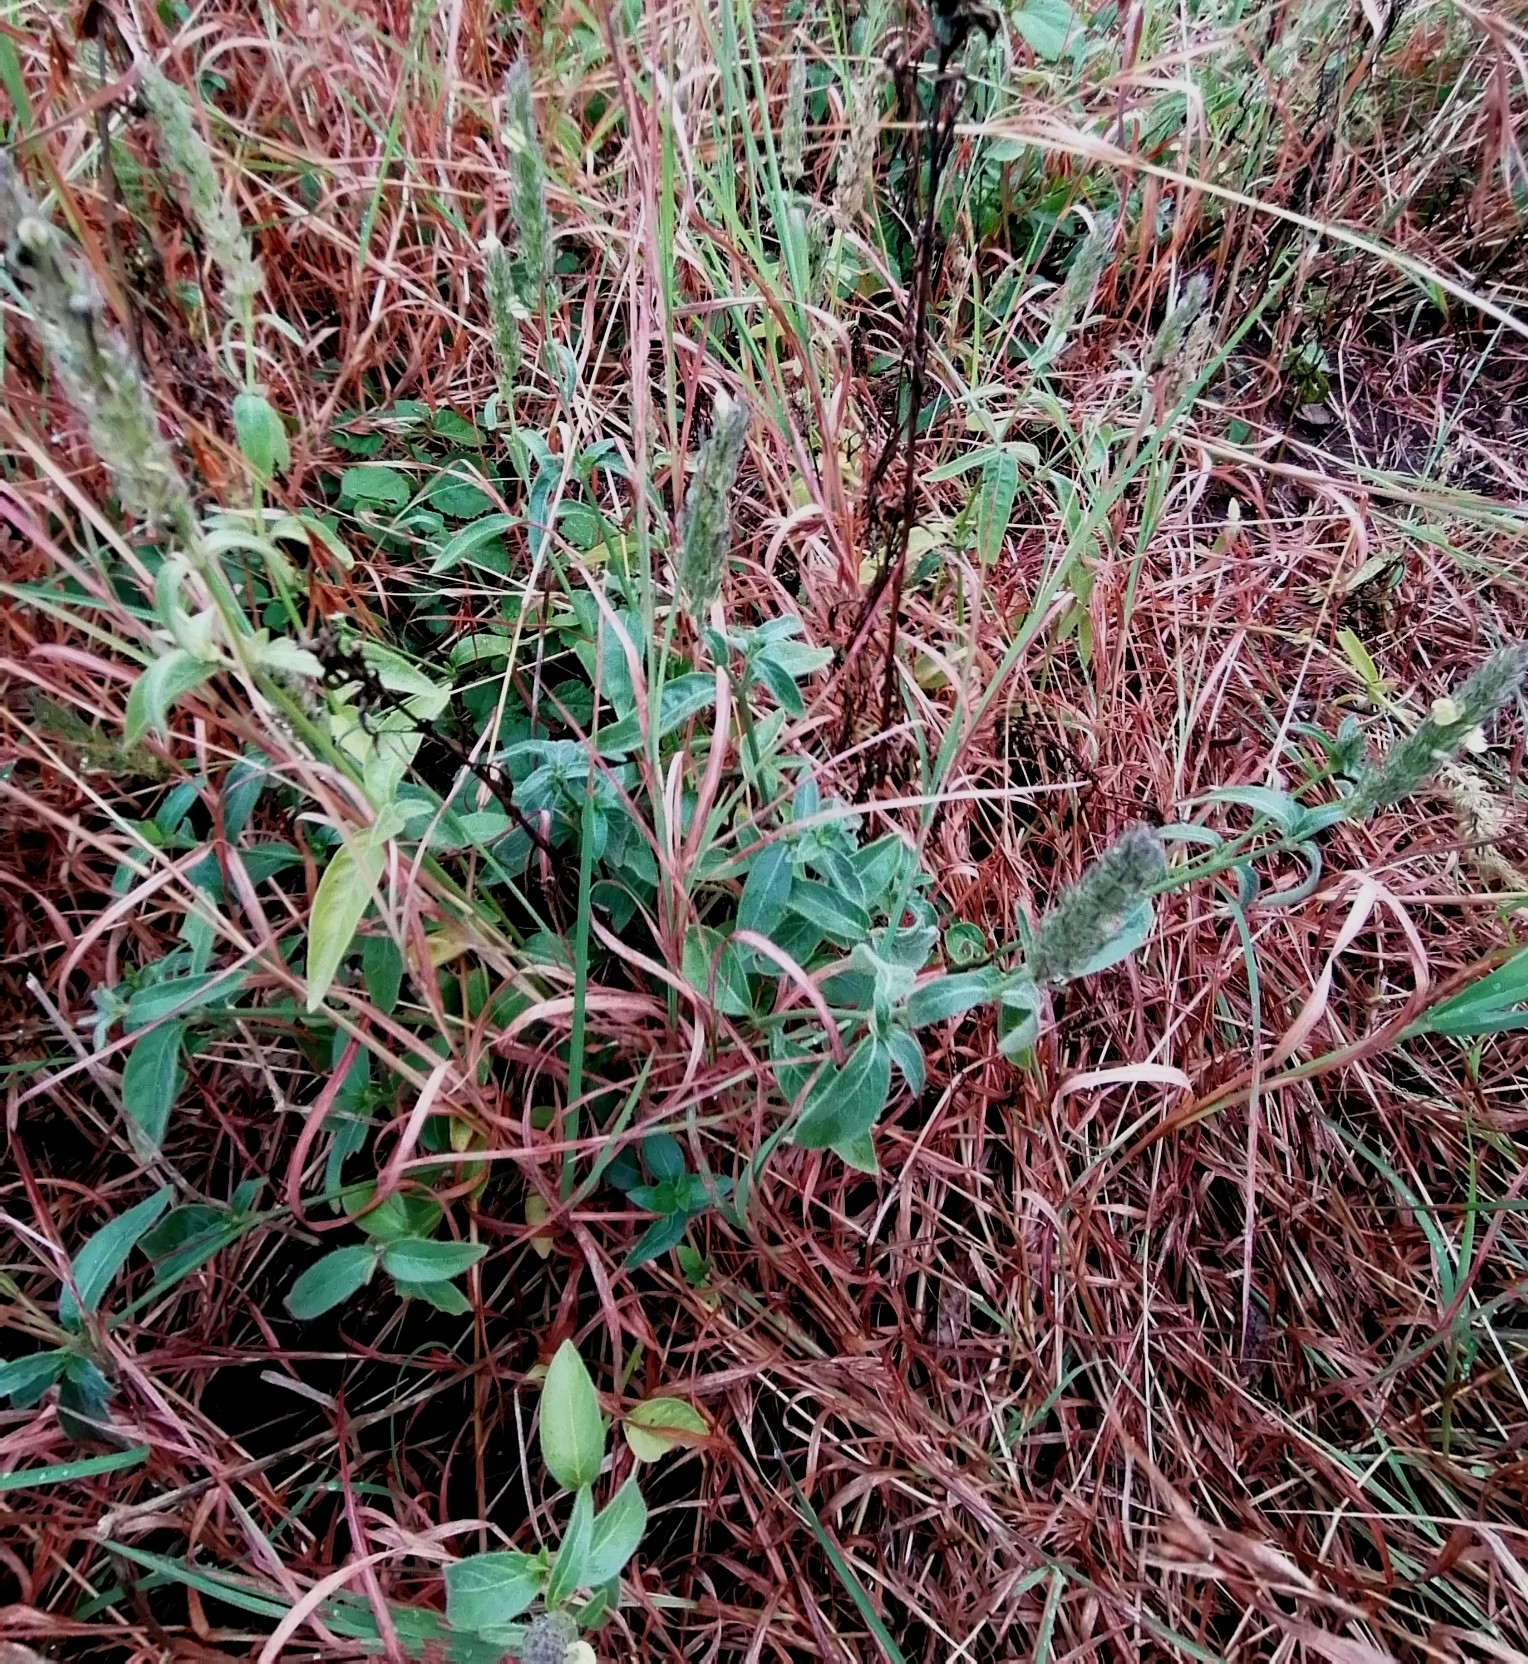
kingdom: Plantae
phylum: Tracheophyta
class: Magnoliopsida
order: Lamiales
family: Acanthaceae
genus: Justicia
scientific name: Justicia flava
